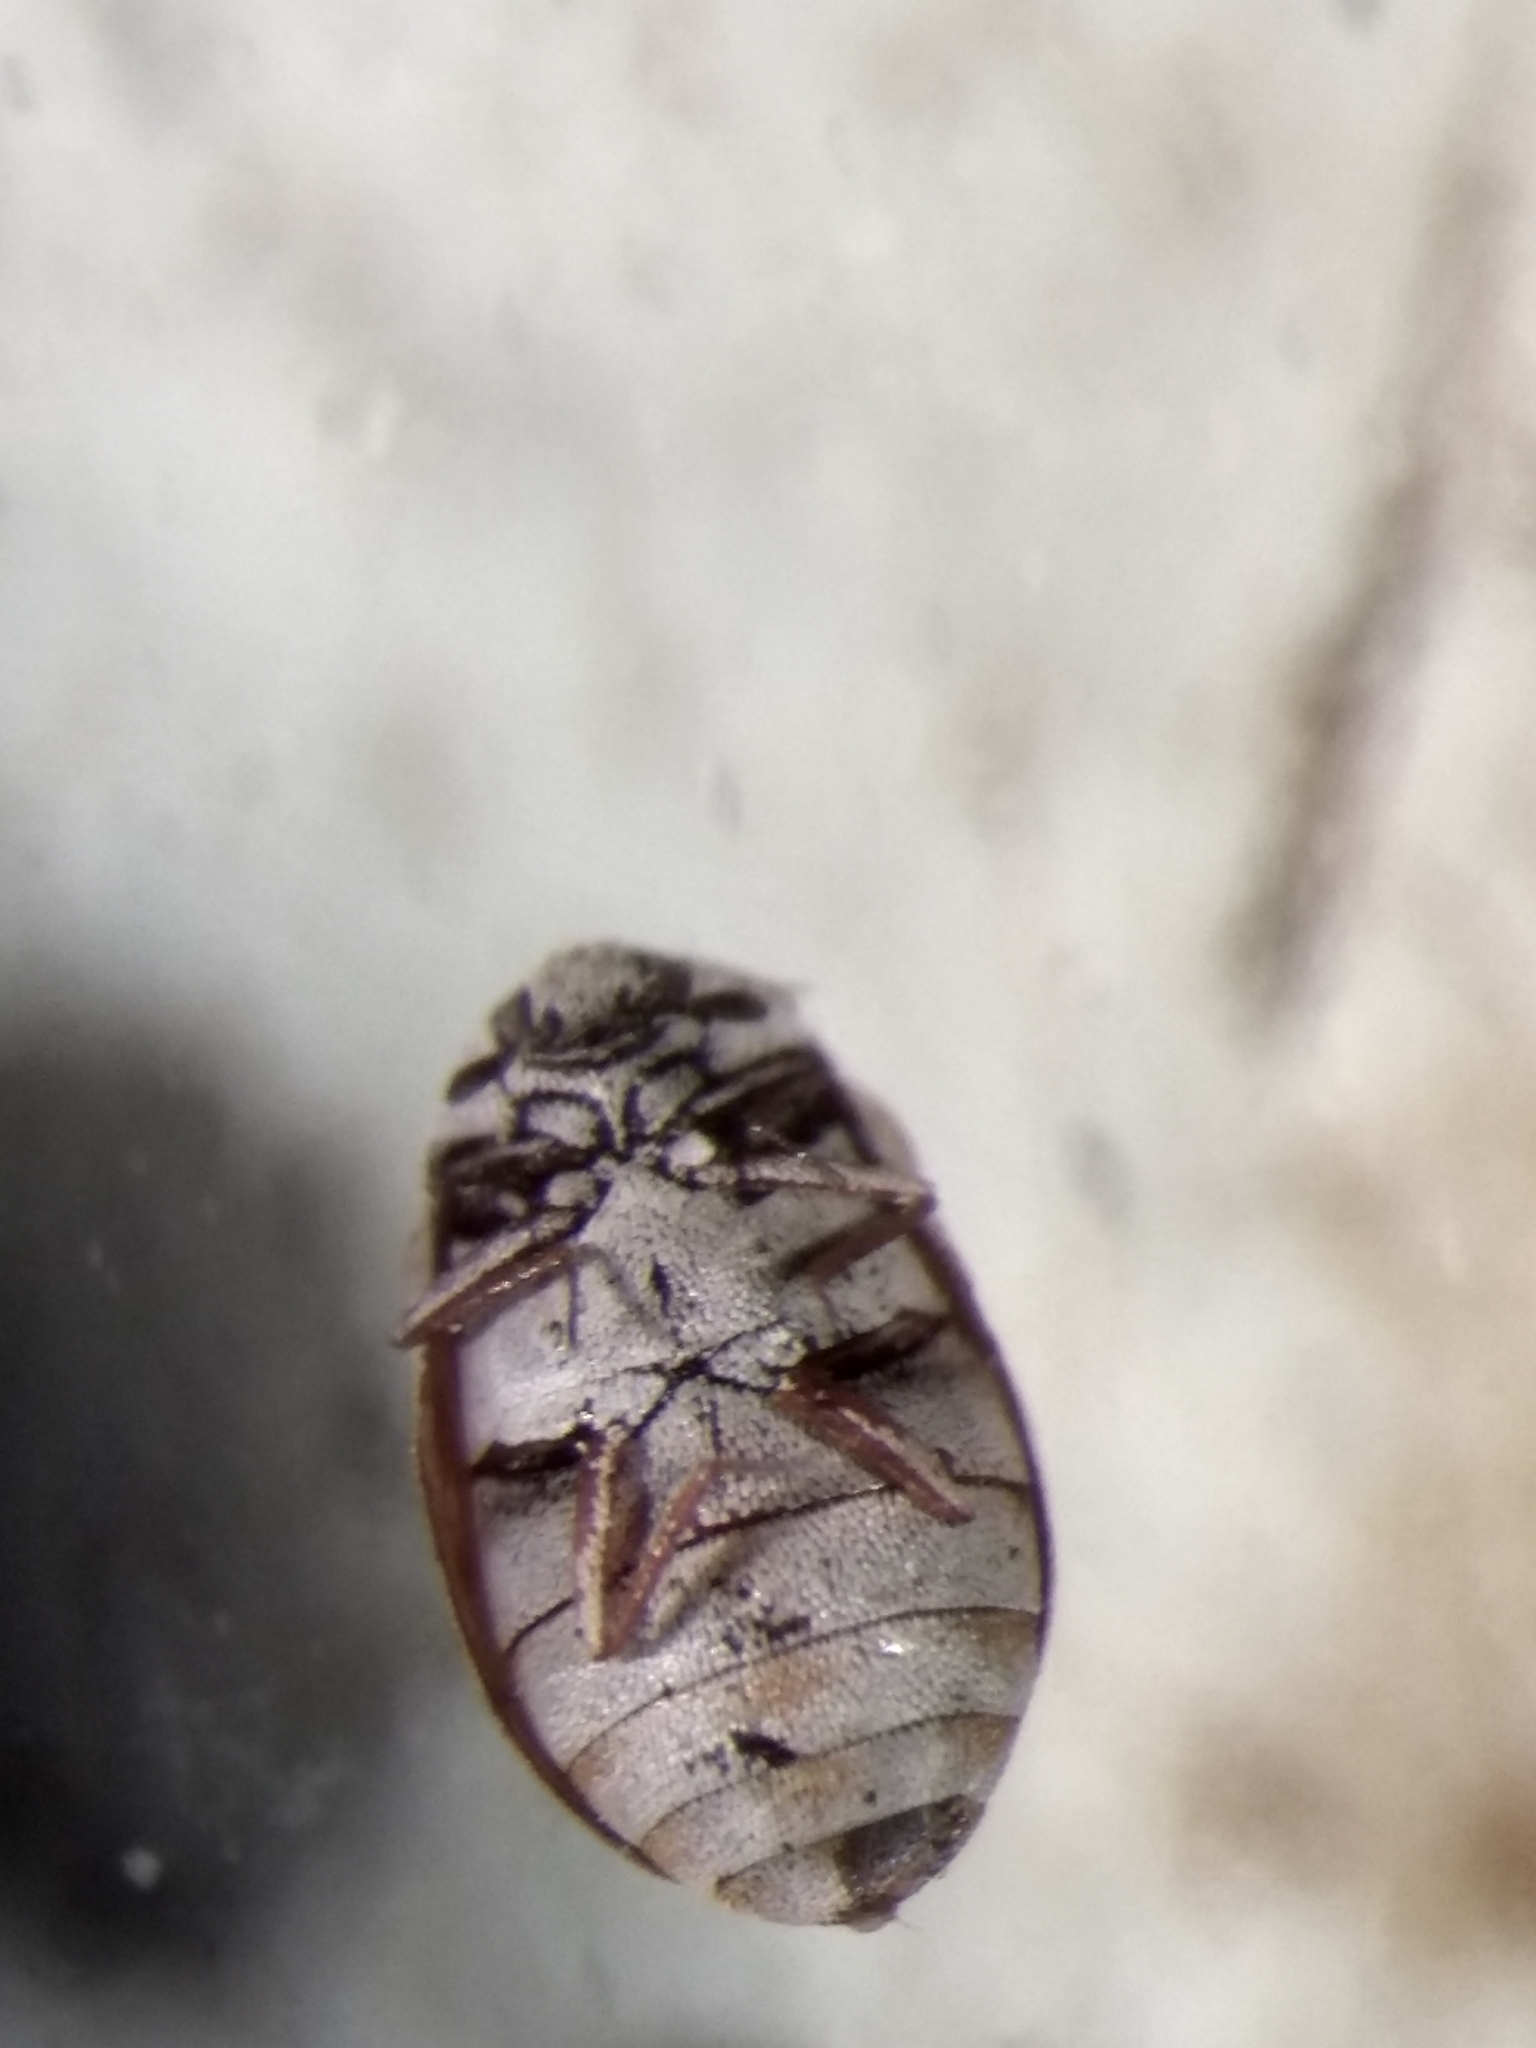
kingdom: Animalia
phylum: Arthropoda
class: Insecta
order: Coleoptera
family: Dermestidae
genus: Anthrenus
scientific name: Anthrenus coloratus
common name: Auger beetle
